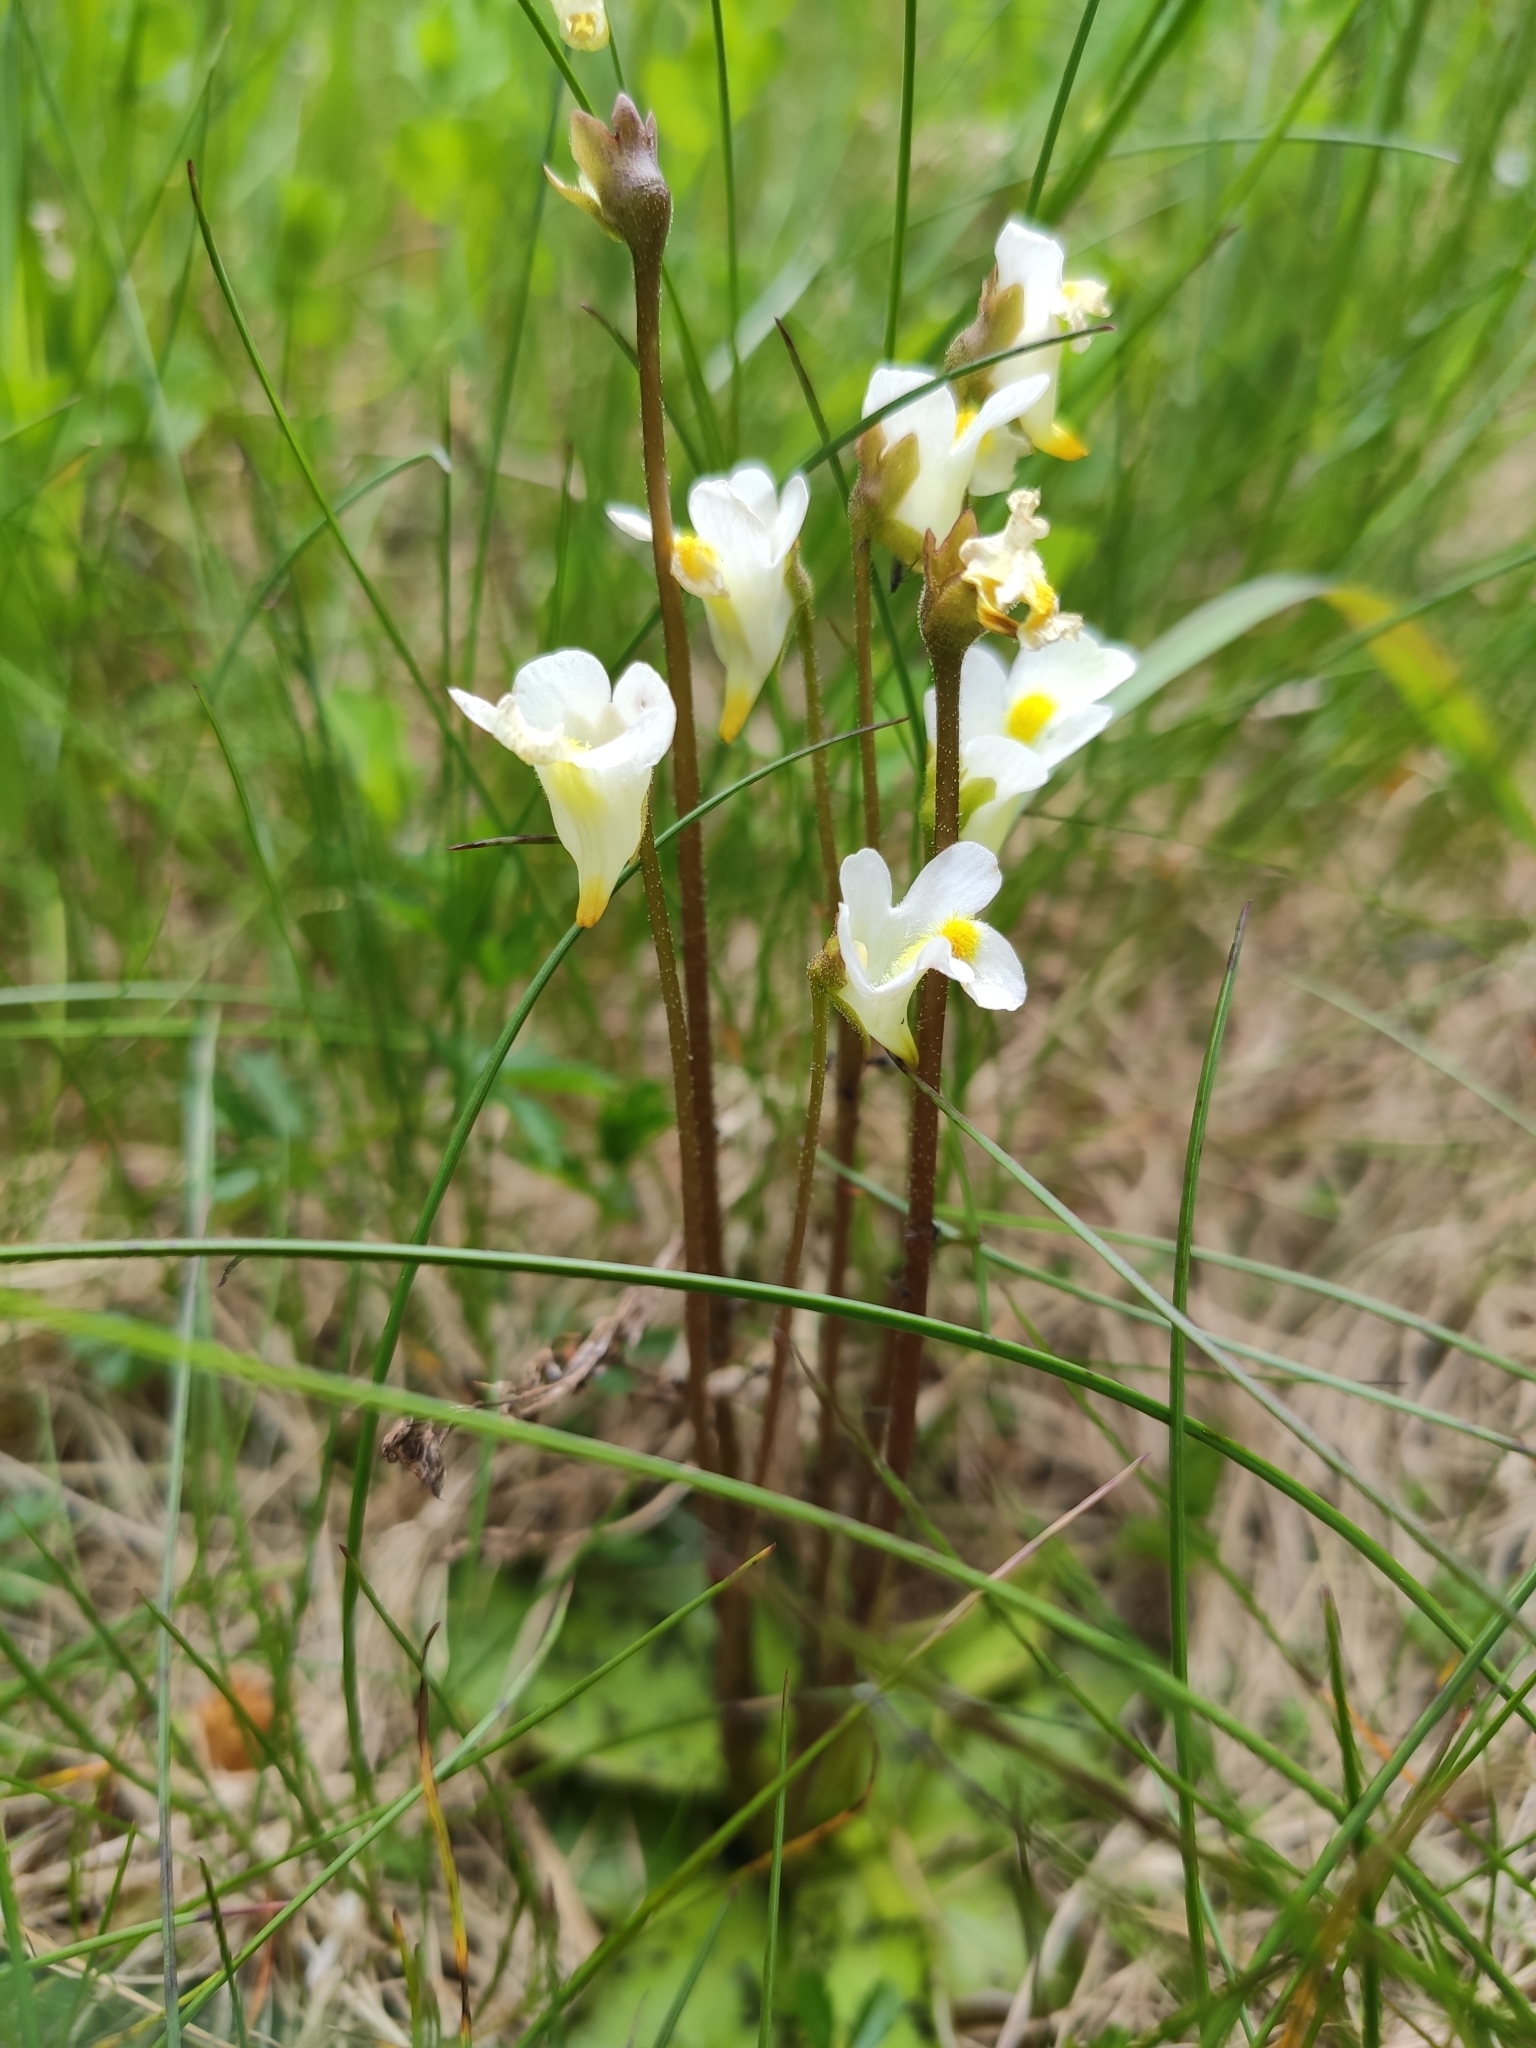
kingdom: Plantae
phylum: Tracheophyta
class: Magnoliopsida
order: Lamiales
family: Lentibulariaceae
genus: Pinguicula
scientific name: Pinguicula alpina
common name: Alpine butterwort
